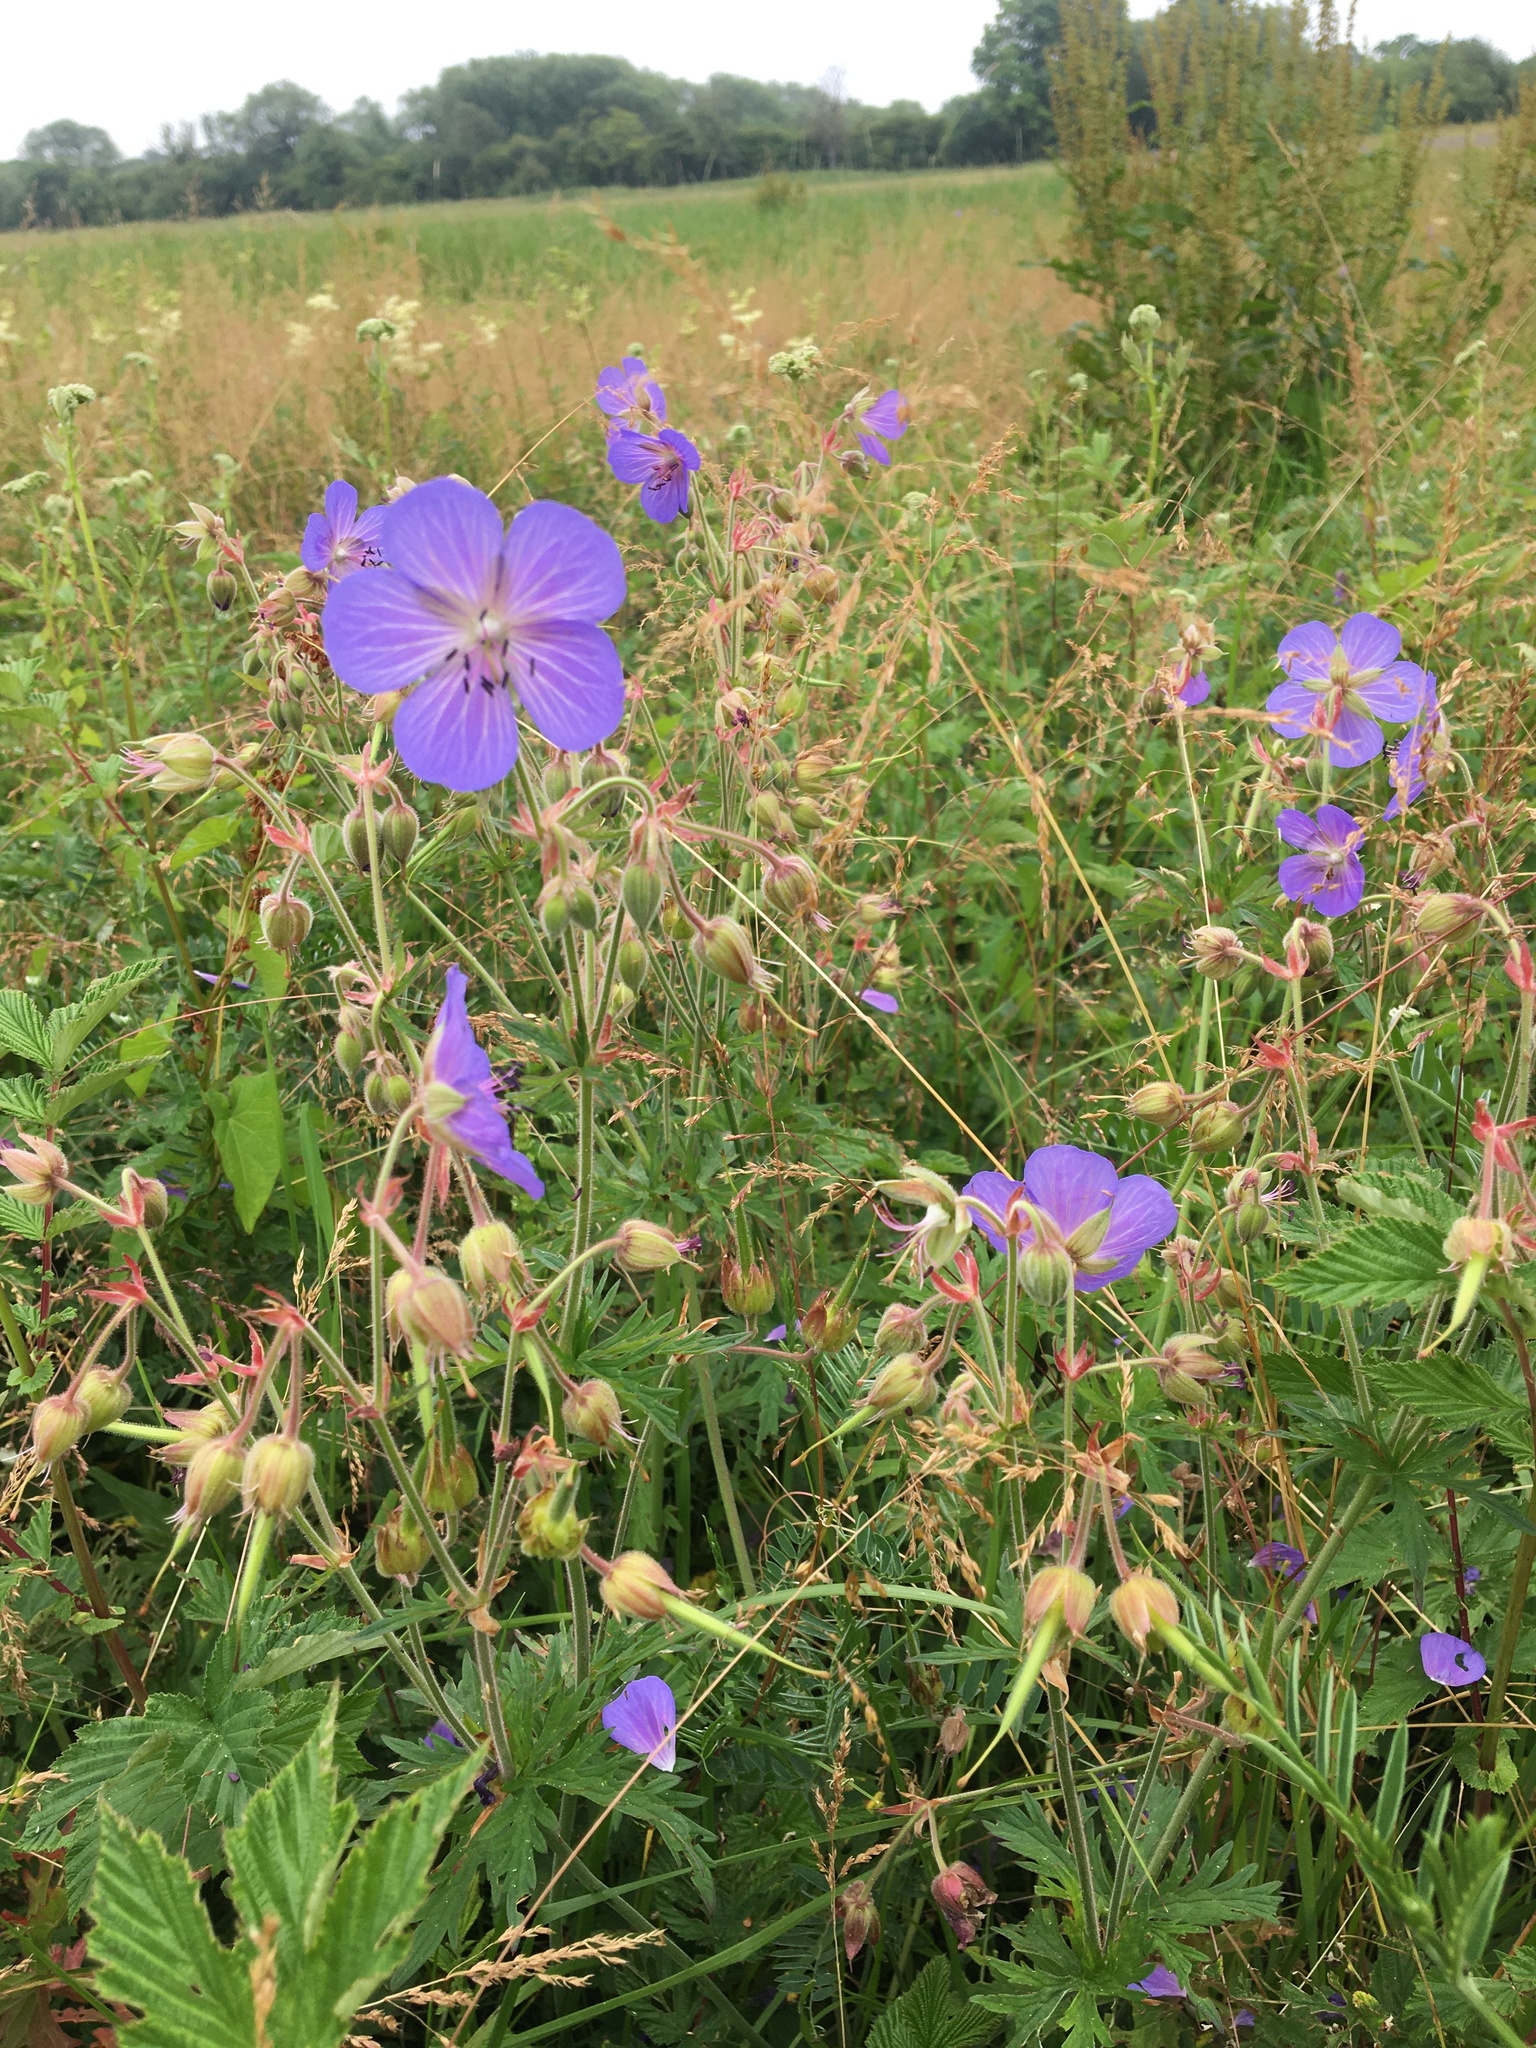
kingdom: Plantae
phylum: Tracheophyta
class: Magnoliopsida
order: Geraniales
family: Geraniaceae
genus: Geranium
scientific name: Geranium pratense
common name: Meadow crane's-bill
